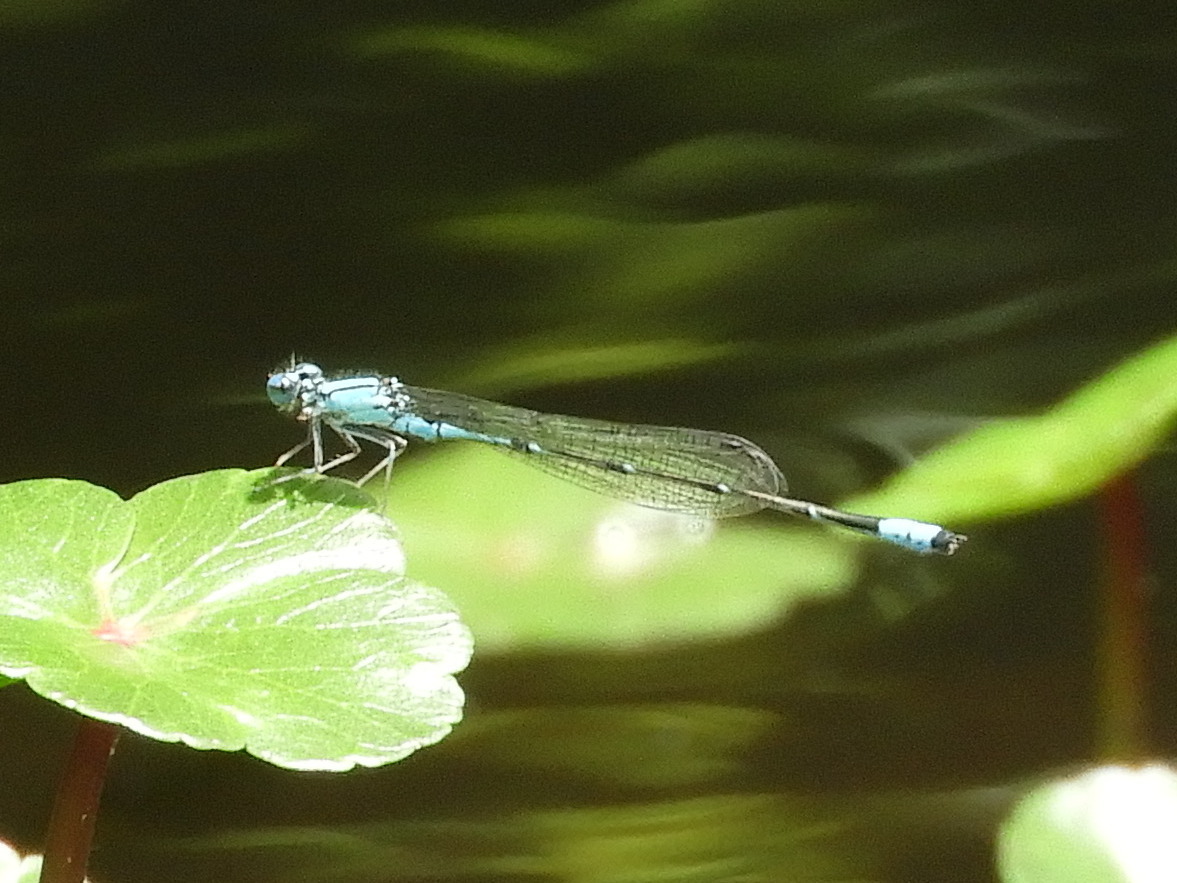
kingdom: Animalia
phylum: Arthropoda
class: Insecta
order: Odonata
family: Coenagrionidae
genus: Enallagma
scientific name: Enallagma traviatum
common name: Slender bluet
